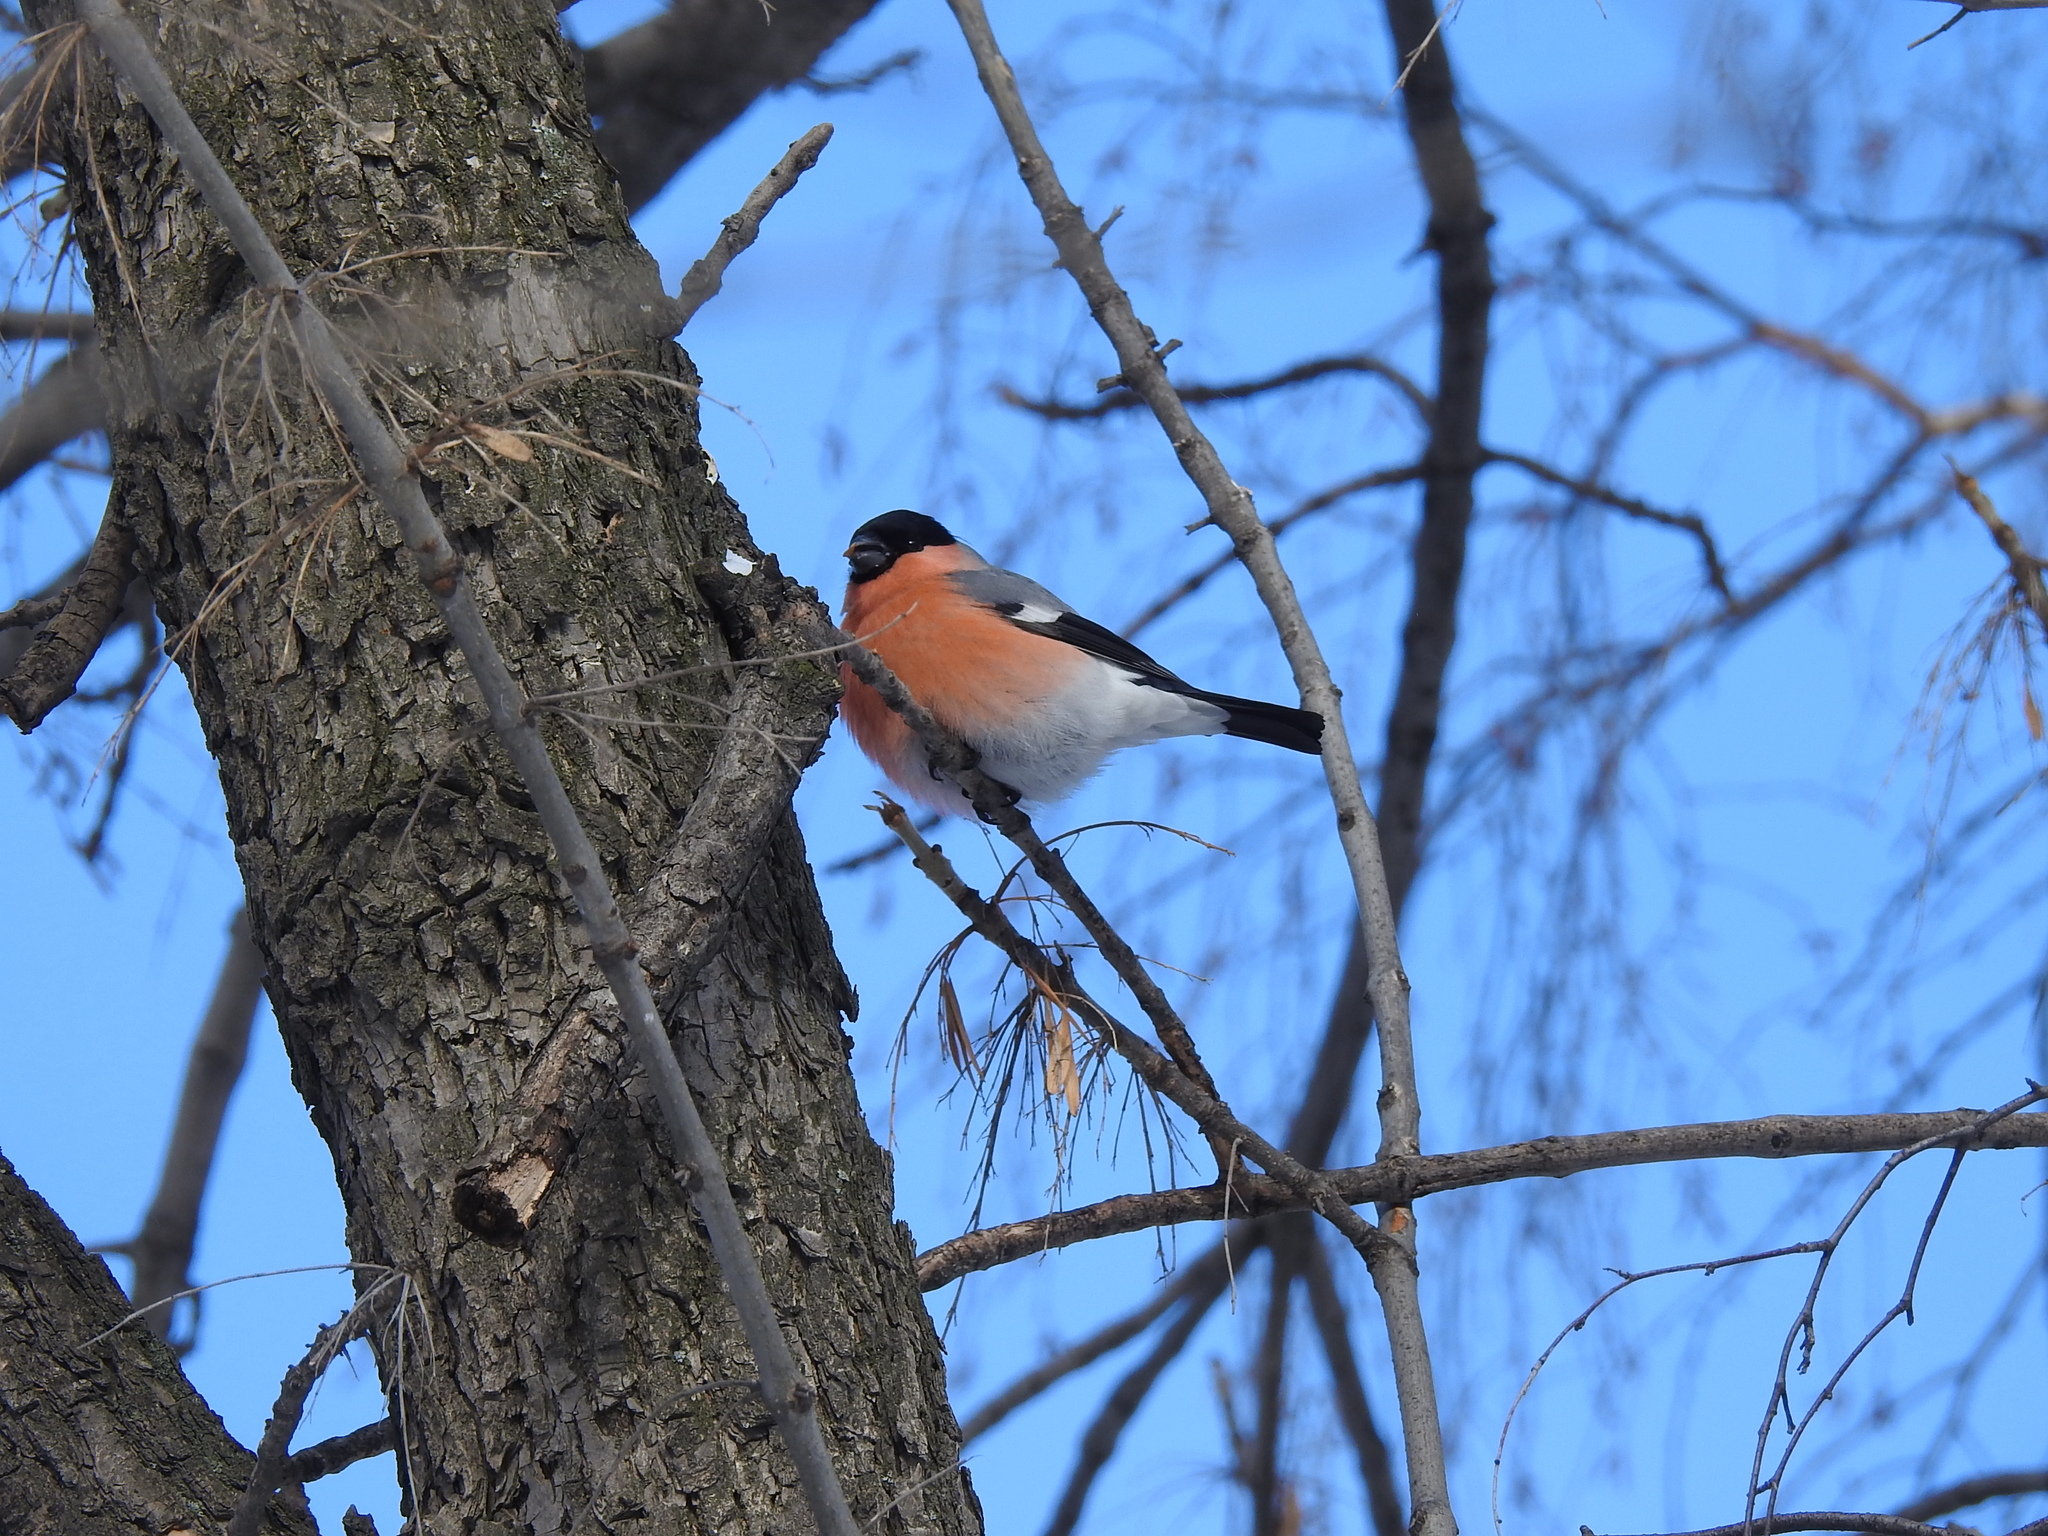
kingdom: Animalia
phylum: Chordata
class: Aves
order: Passeriformes
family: Fringillidae
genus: Pyrrhula
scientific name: Pyrrhula pyrrhula
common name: Eurasian bullfinch
